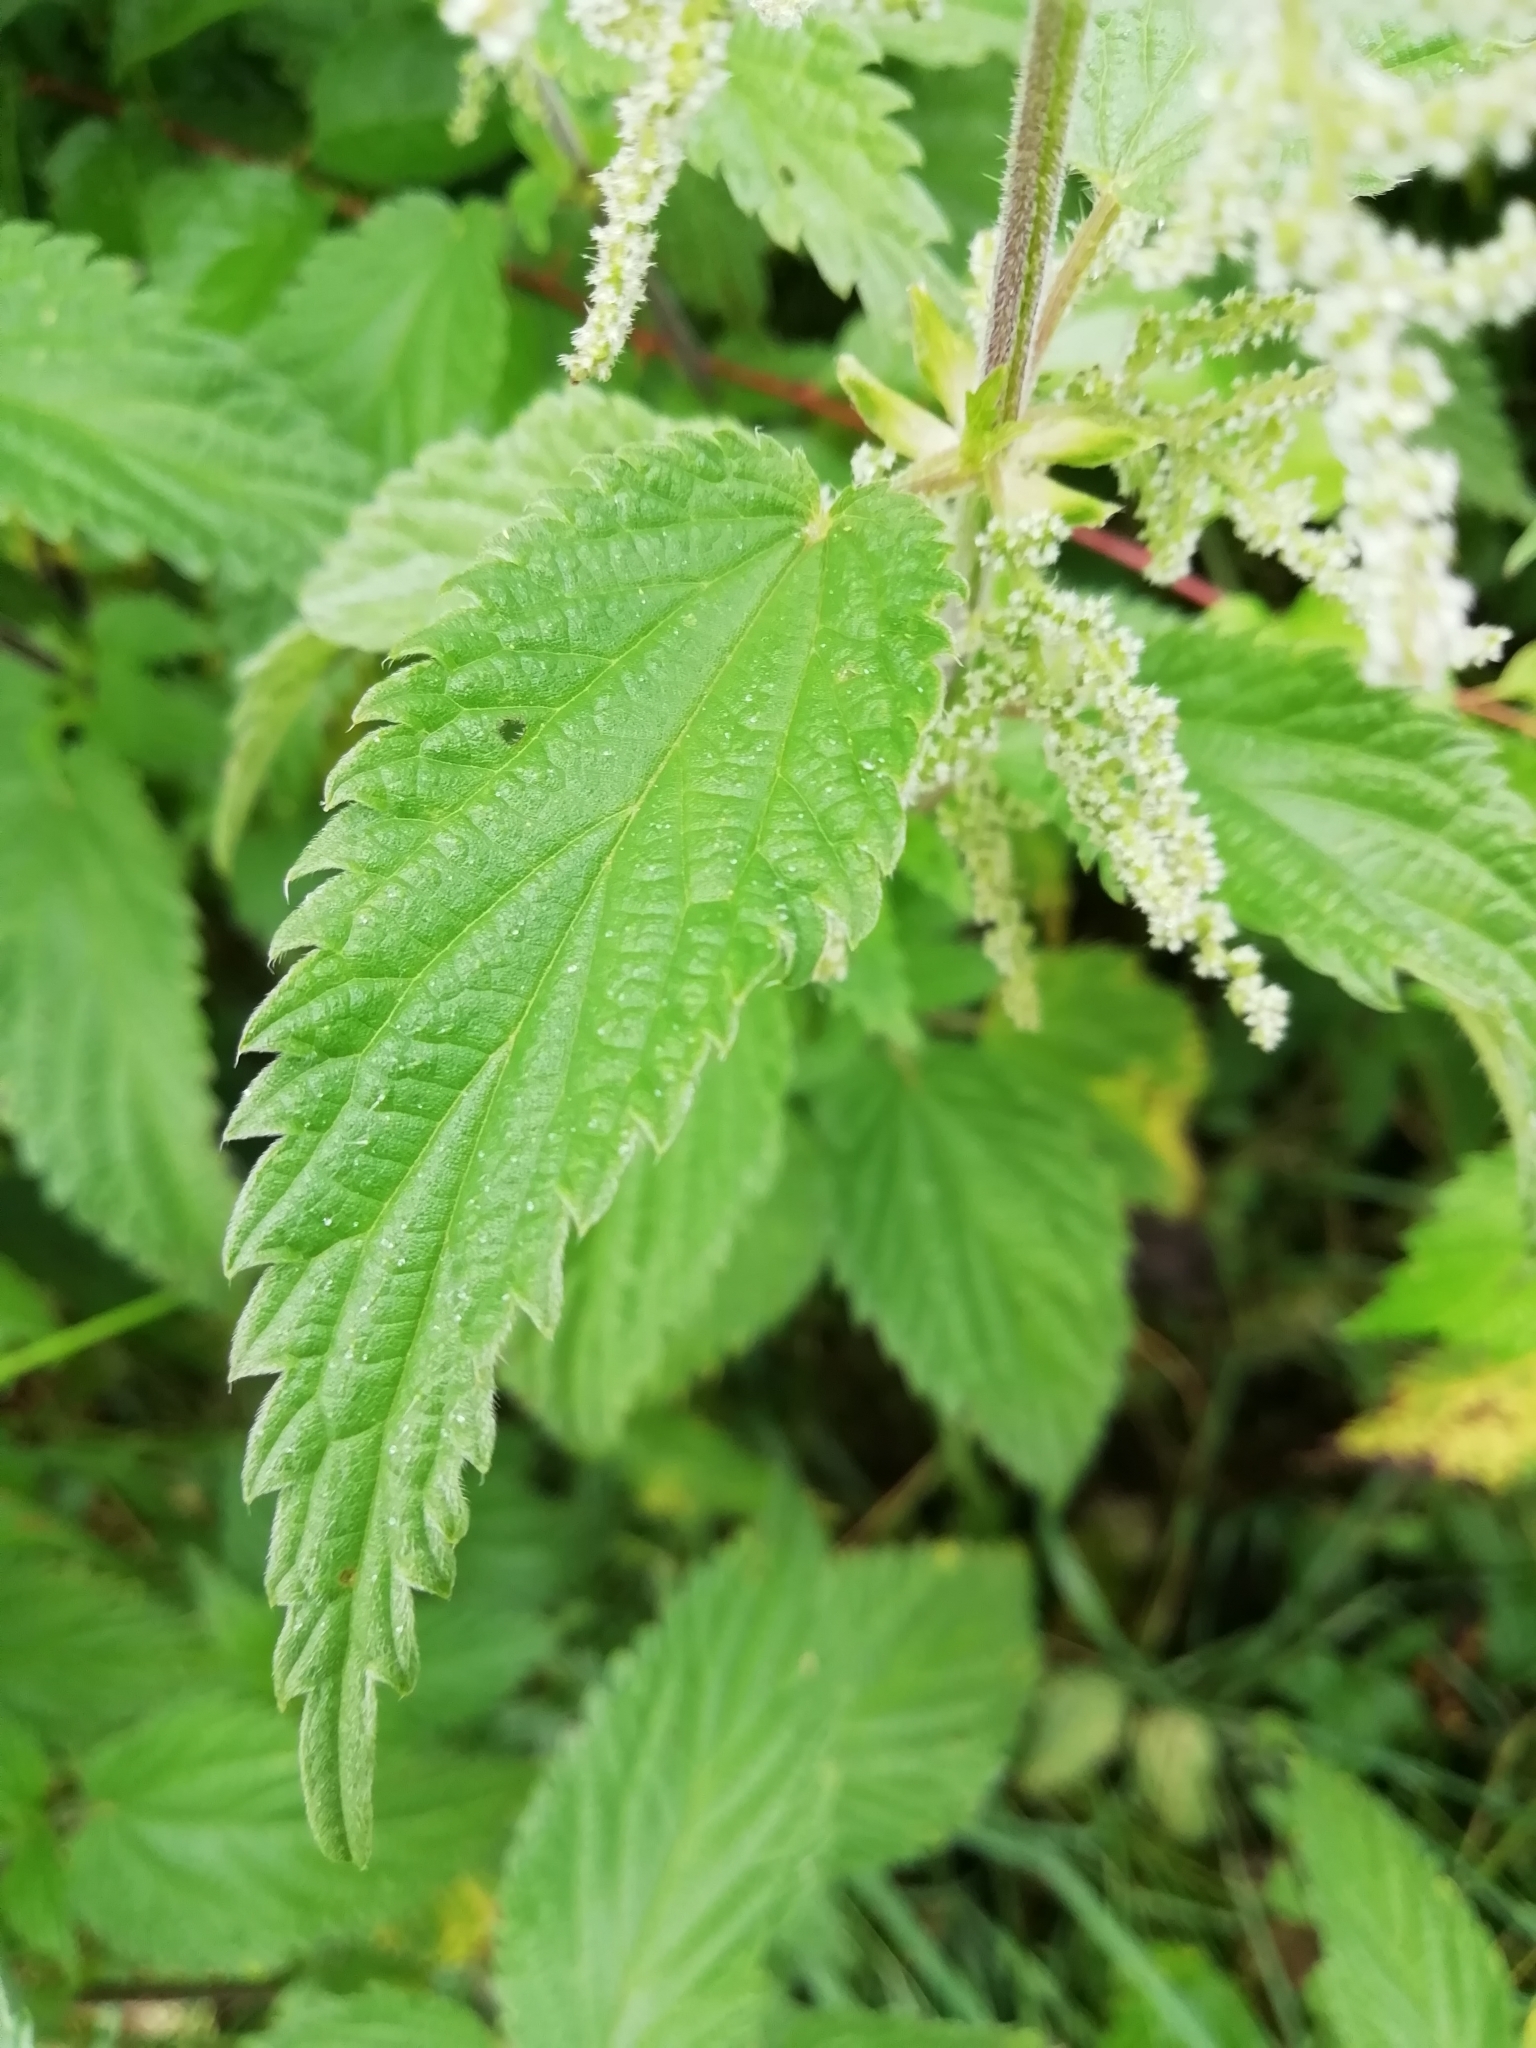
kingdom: Plantae
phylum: Tracheophyta
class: Magnoliopsida
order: Rosales
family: Urticaceae
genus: Urtica
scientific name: Urtica dioica
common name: Common nettle
